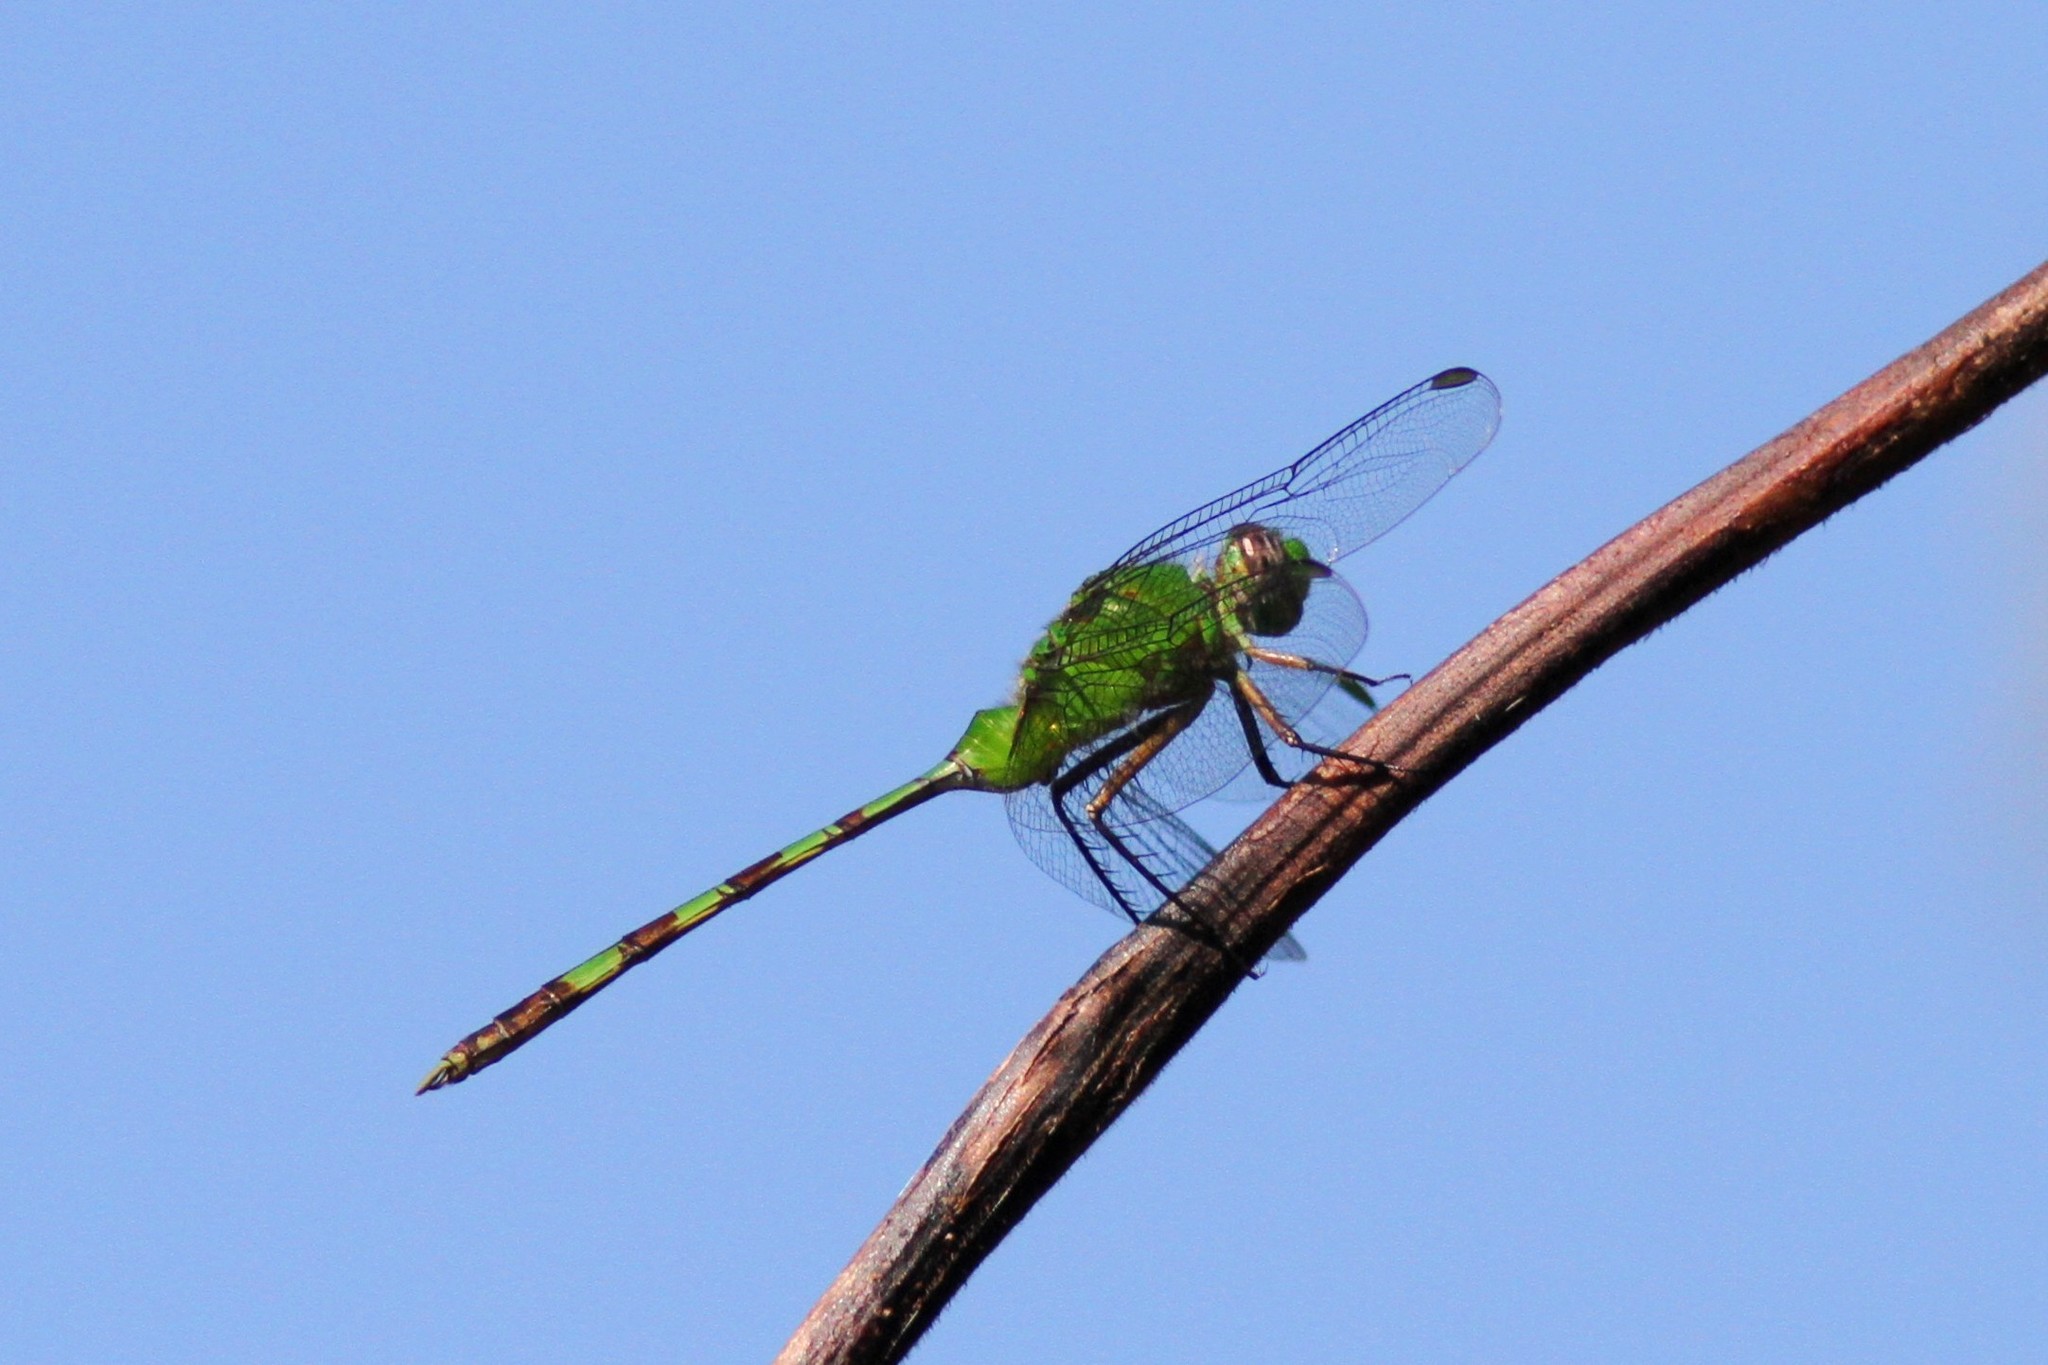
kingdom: Animalia
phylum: Arthropoda
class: Insecta
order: Odonata
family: Libellulidae
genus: Erythemis
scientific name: Erythemis vesiculosa
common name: Great pondhawk
